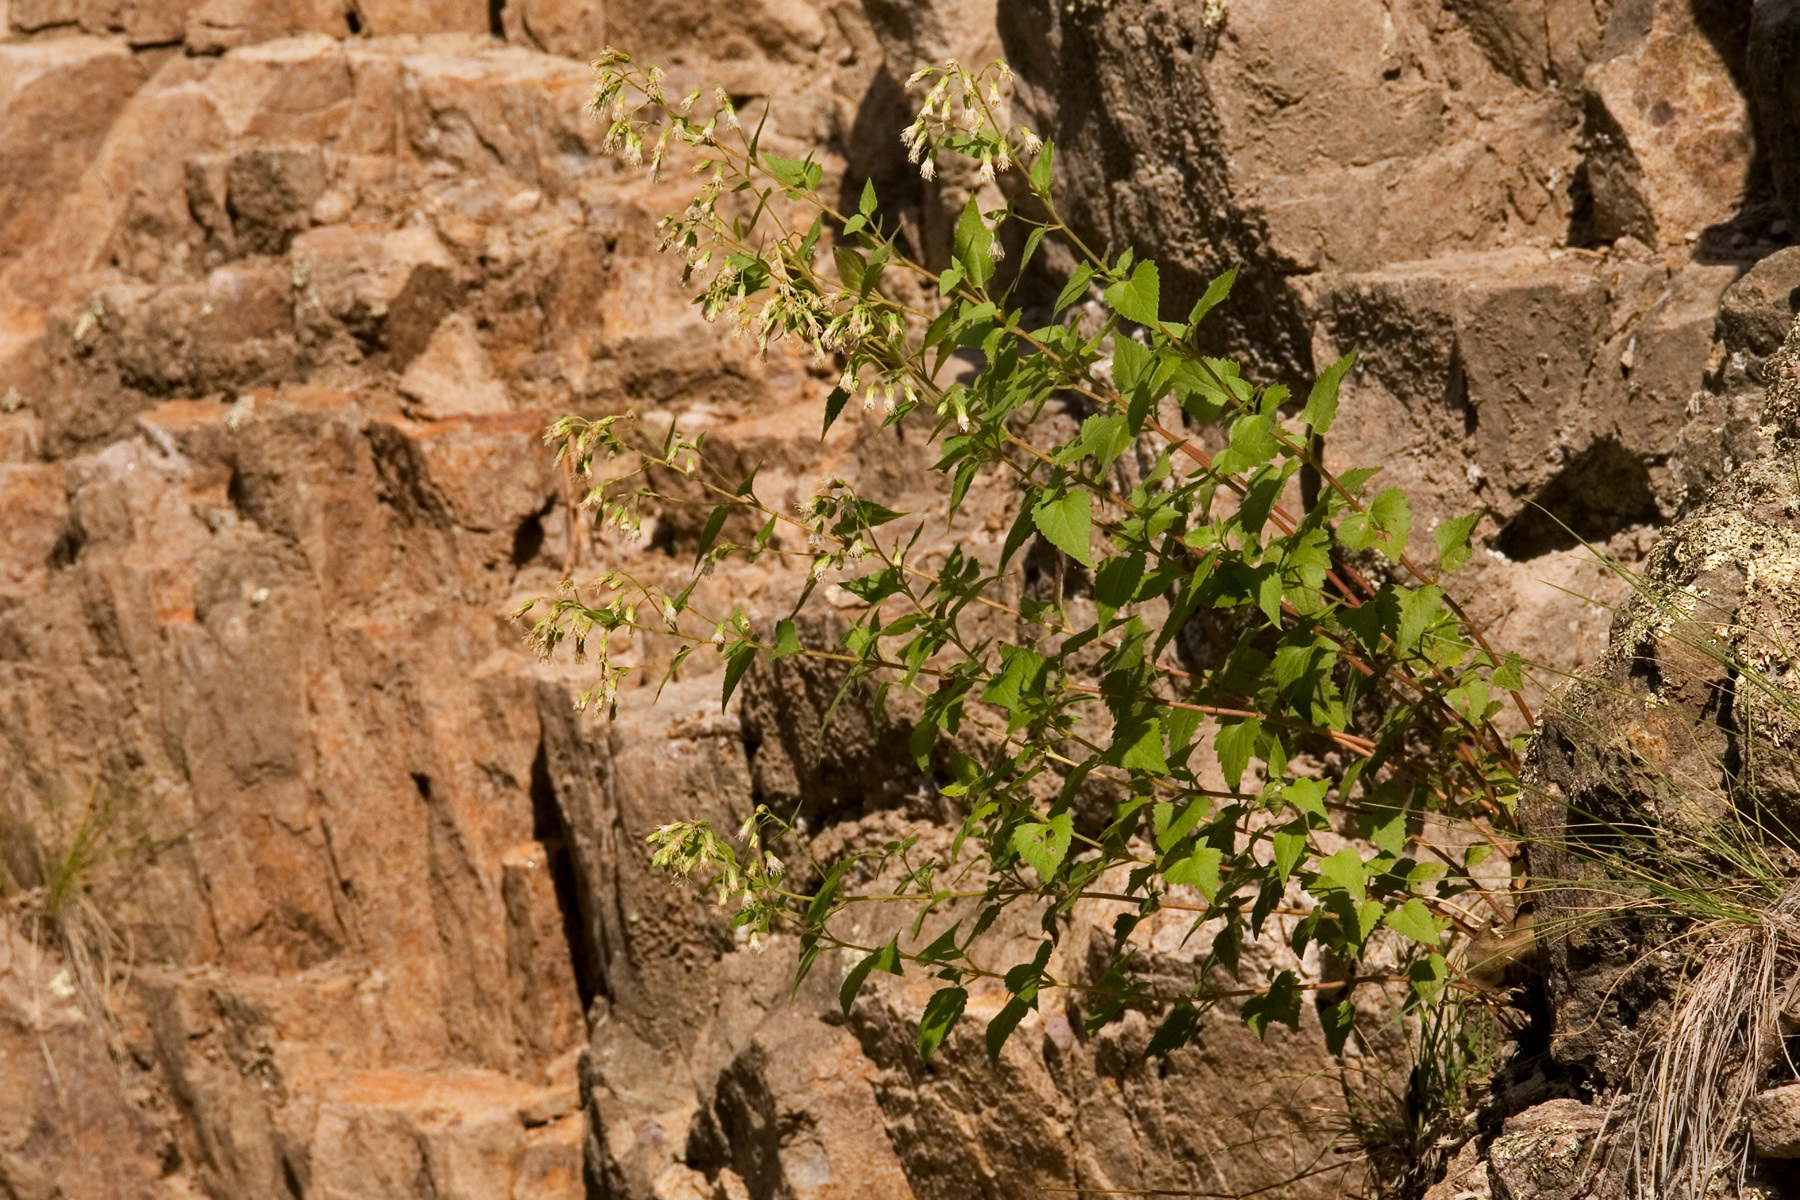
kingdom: Plantae
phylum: Tracheophyta
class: Magnoliopsida
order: Asterales
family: Asteraceae
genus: Brickelliastrum
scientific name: Brickelliastrum fendleri
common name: Fendler's-brickellbush
